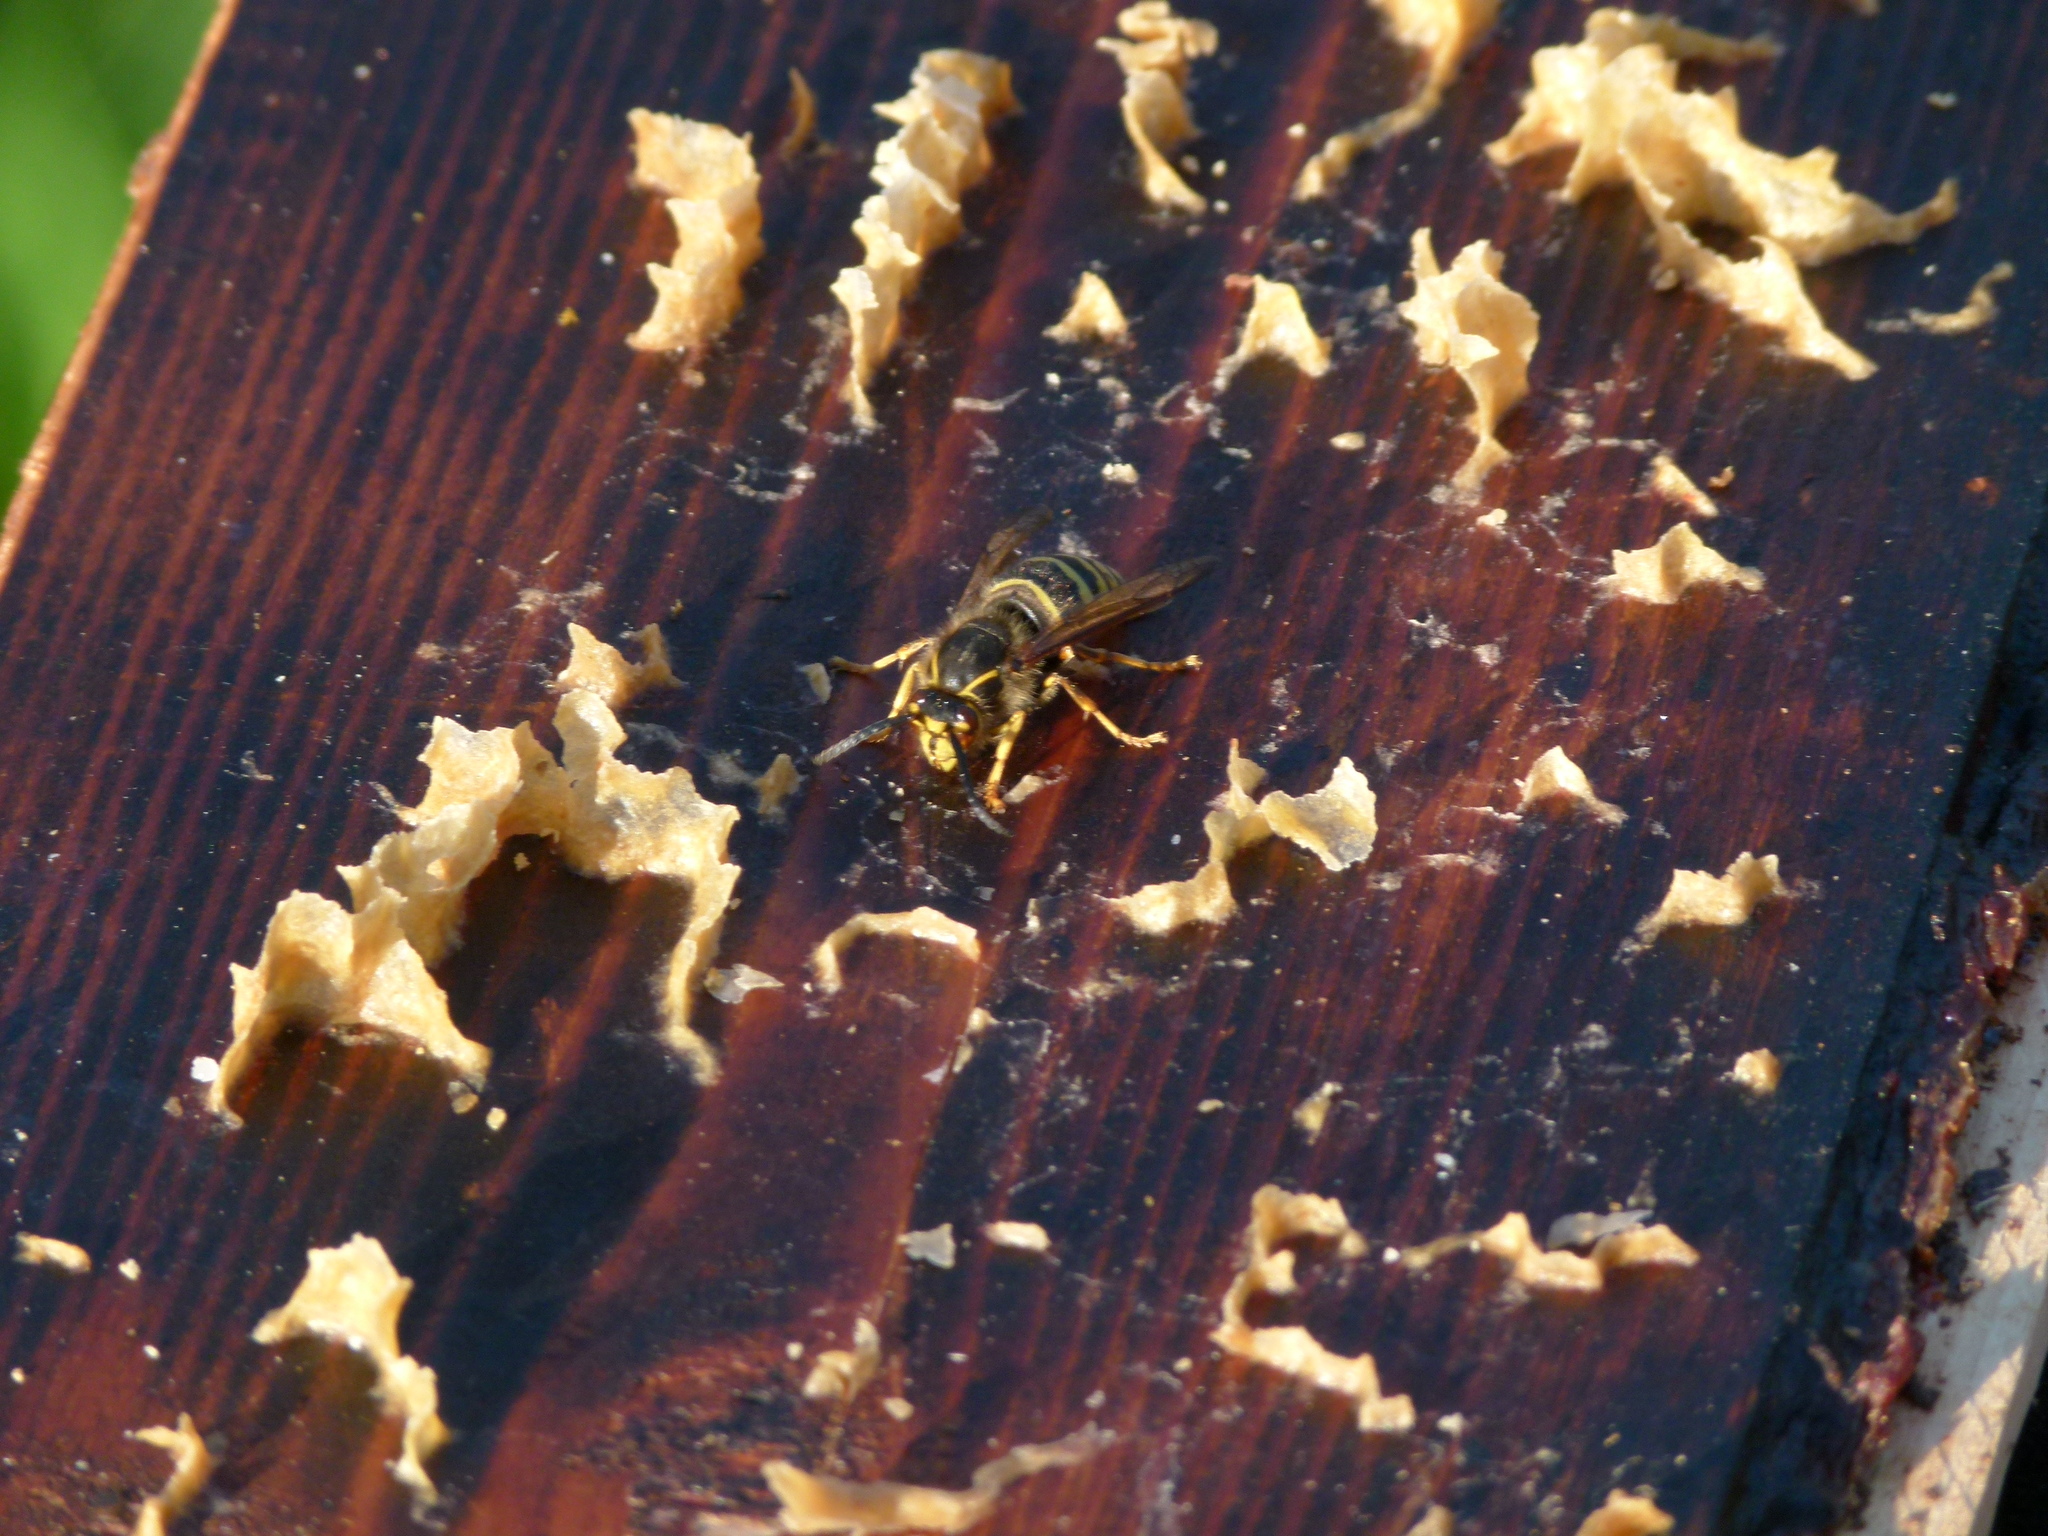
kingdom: Animalia
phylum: Arthropoda
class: Insecta
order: Hymenoptera
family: Vespidae
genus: Dolichovespula
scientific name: Dolichovespula media
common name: Median wasp
